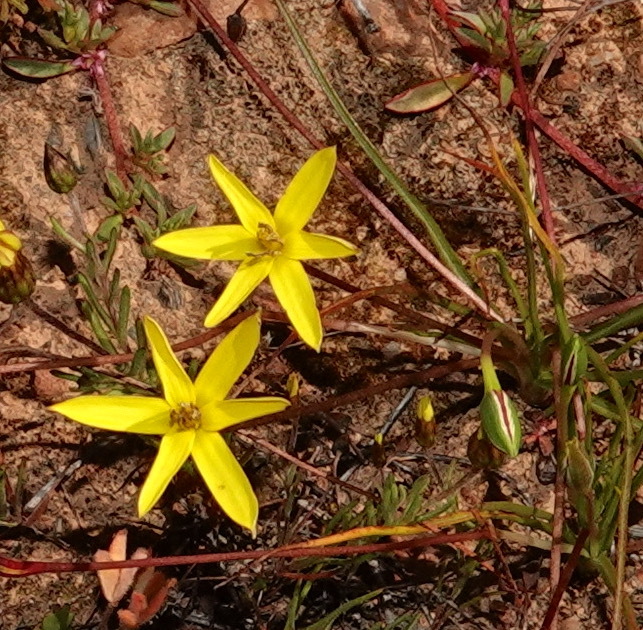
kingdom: Plantae
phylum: Tracheophyta
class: Liliopsida
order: Asparagales
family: Hypoxidaceae
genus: Pauridia
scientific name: Pauridia serrata
